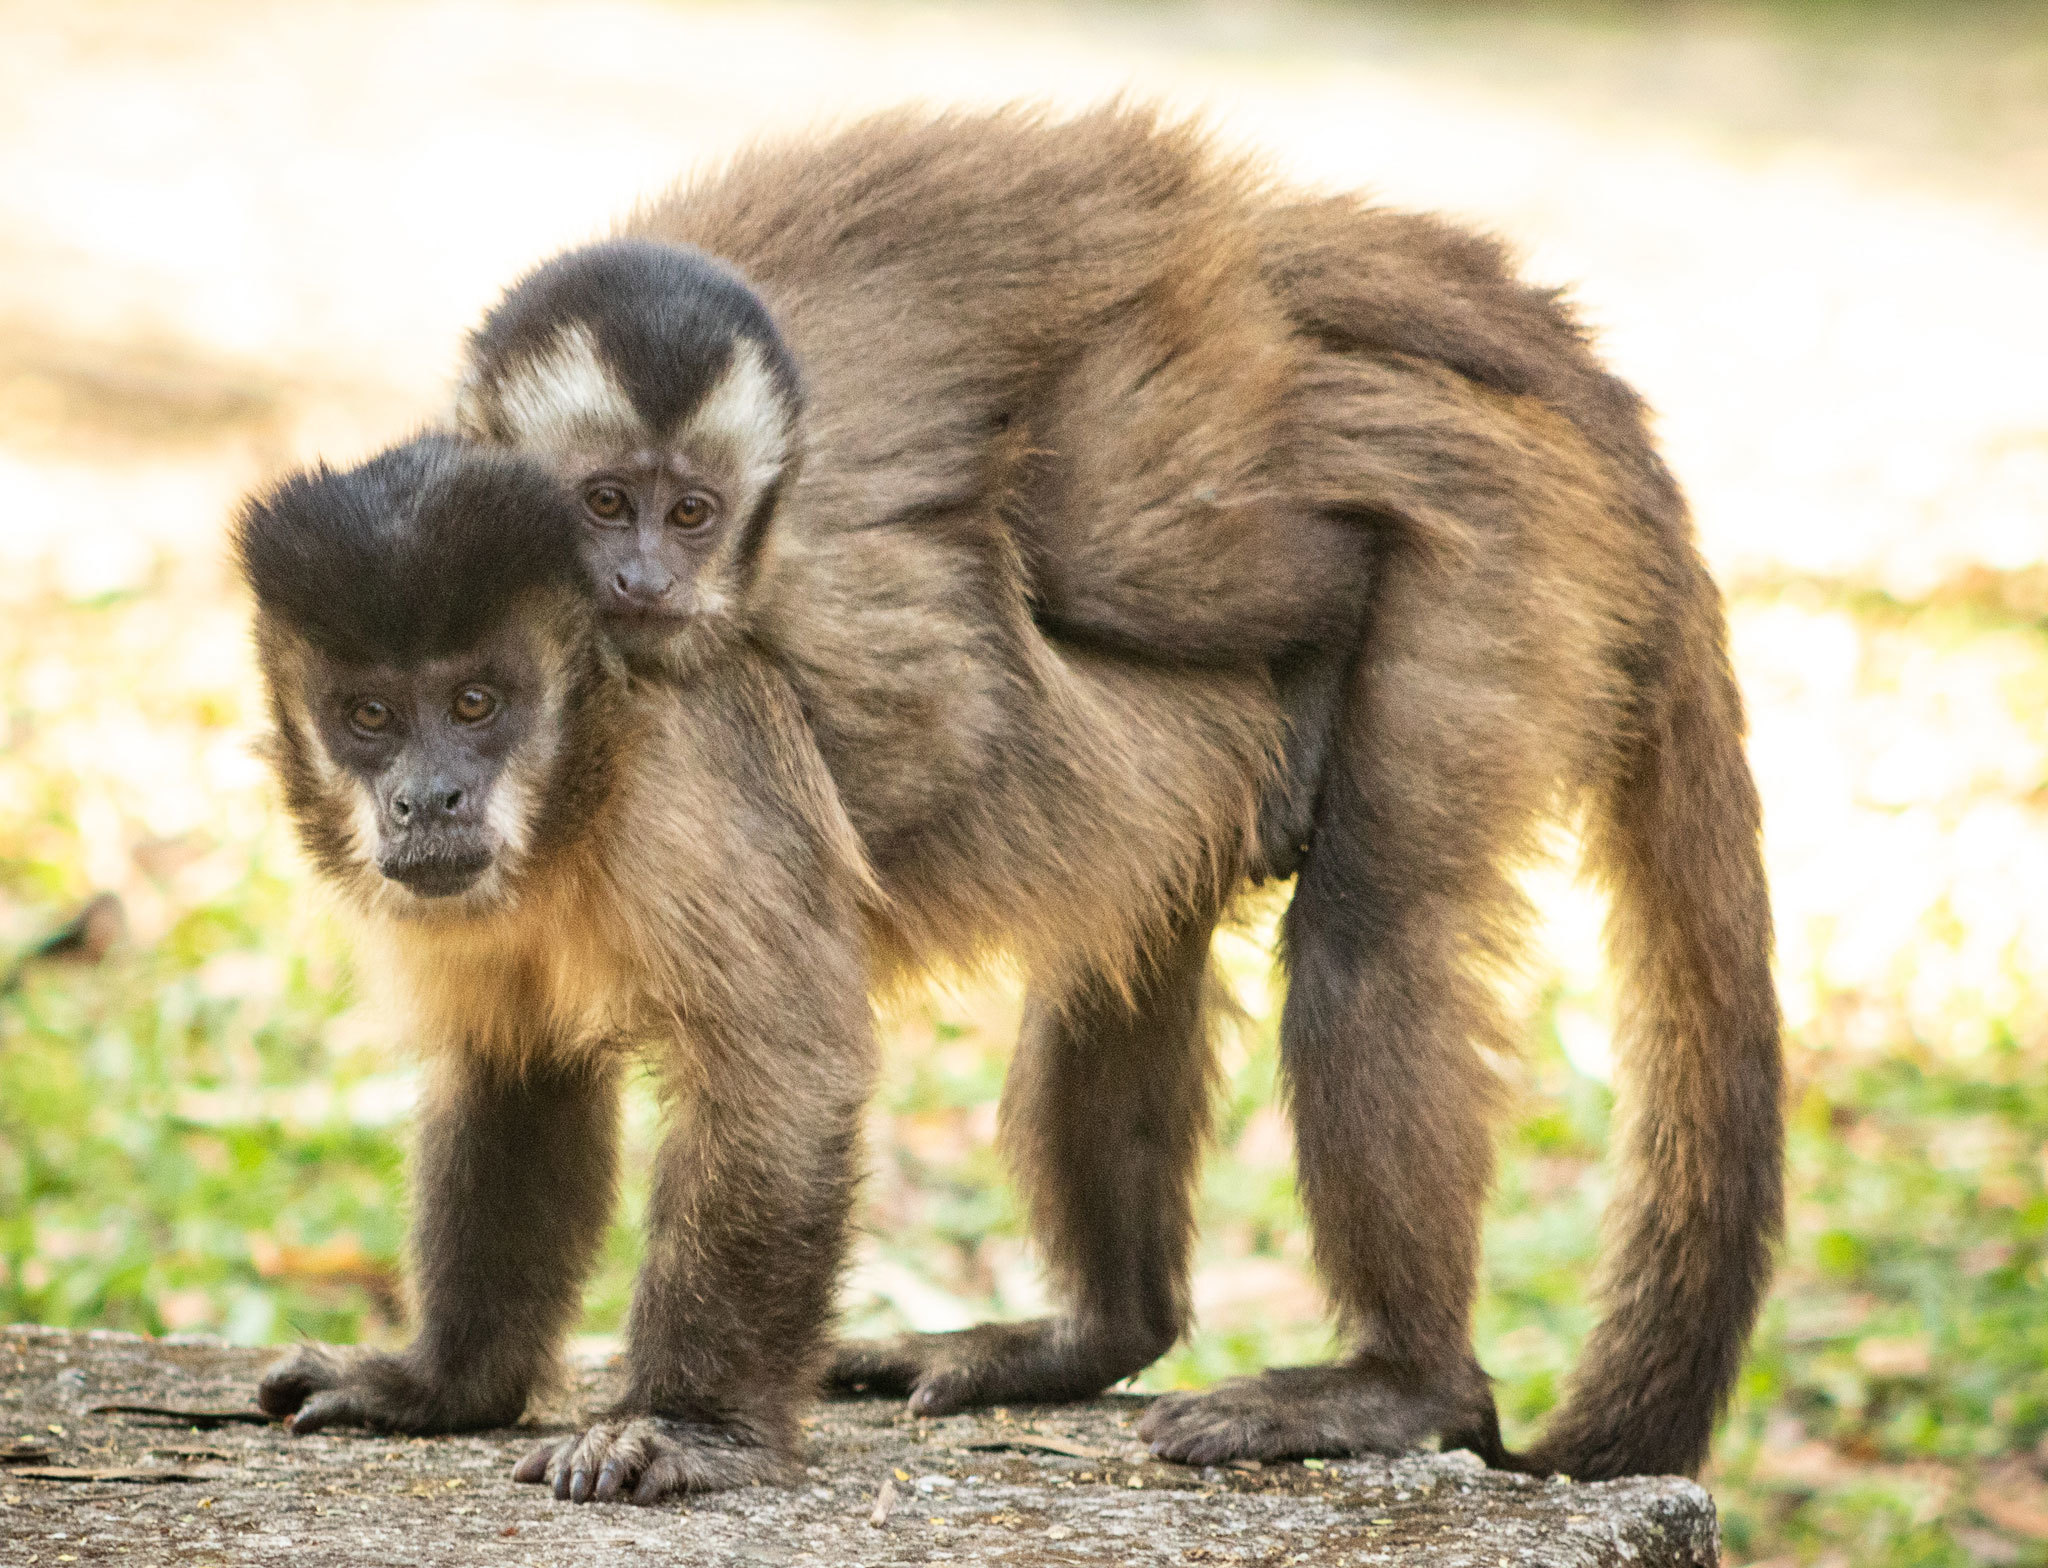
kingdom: Animalia
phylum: Chordata
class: Mammalia
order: Primates
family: Cebidae
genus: Sapajus
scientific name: Sapajus nigritus
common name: Black capuchin
